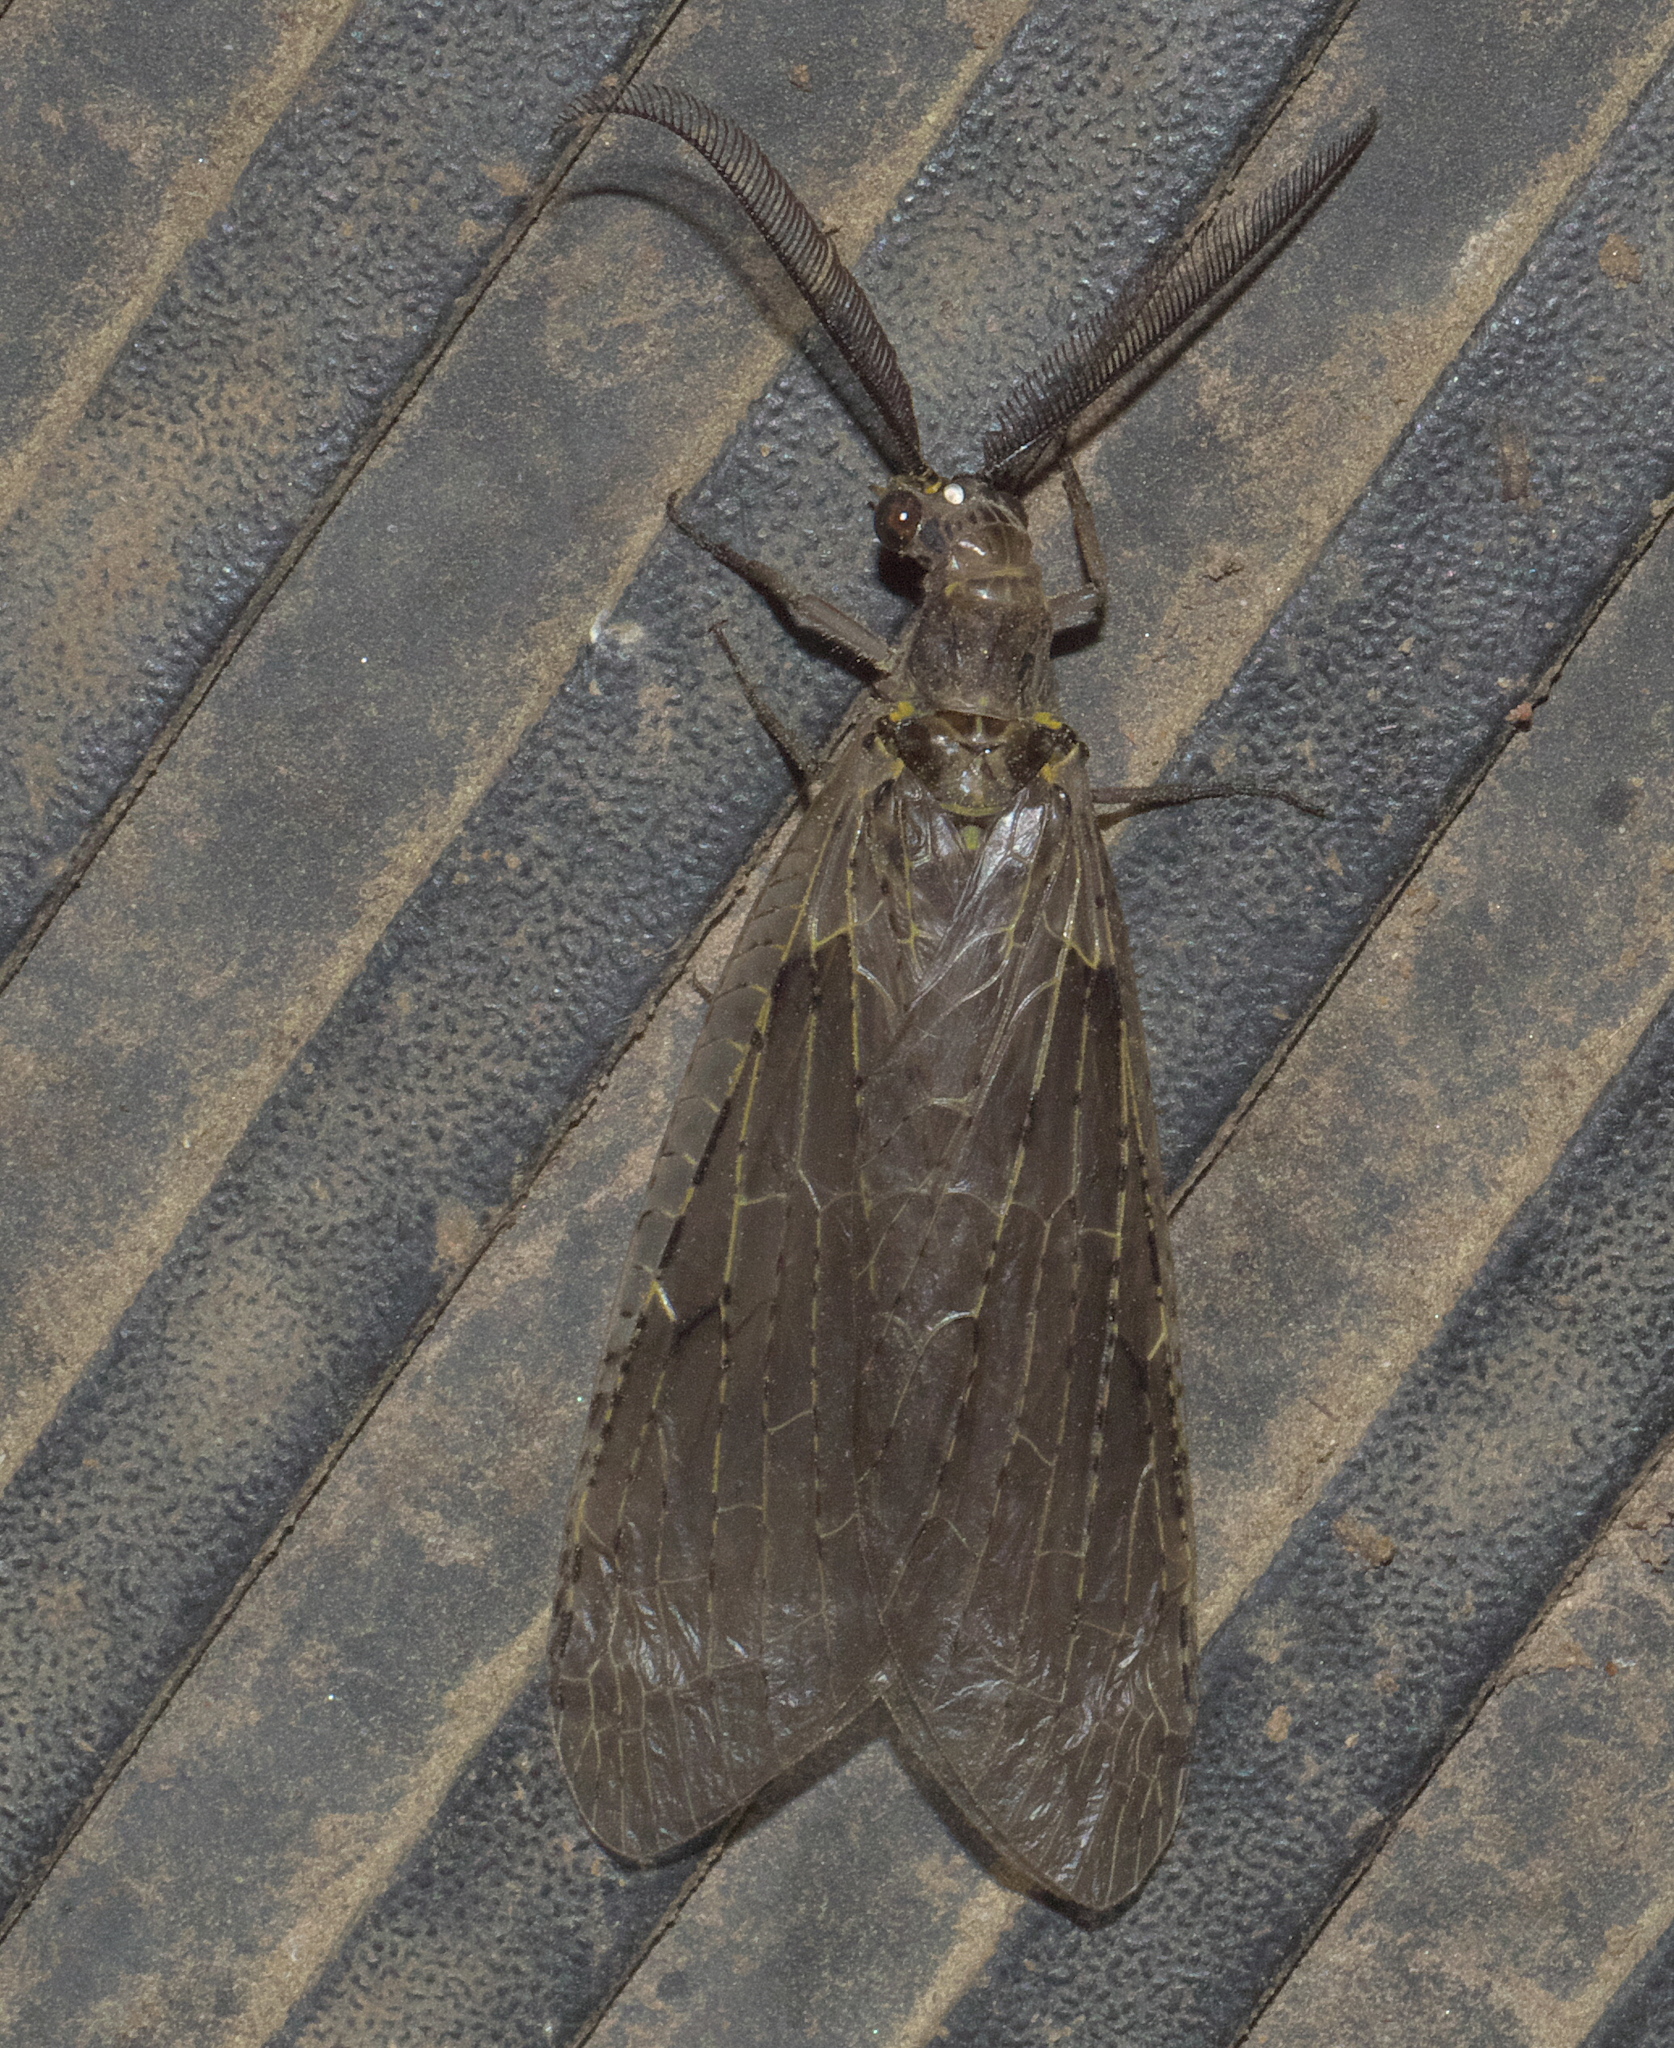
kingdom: Animalia
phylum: Arthropoda
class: Insecta
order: Megaloptera
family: Corydalidae
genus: Chauliodes
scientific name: Chauliodes rastricornis
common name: Spring fishfly
